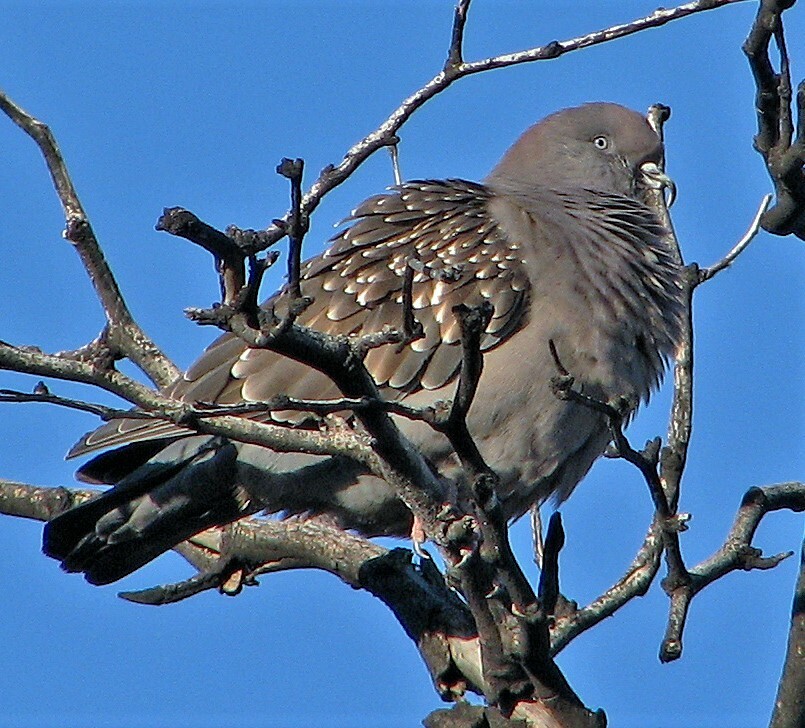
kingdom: Animalia
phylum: Chordata
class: Aves
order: Columbiformes
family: Columbidae
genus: Patagioenas
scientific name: Patagioenas maculosa
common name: Spot-winged pigeon
